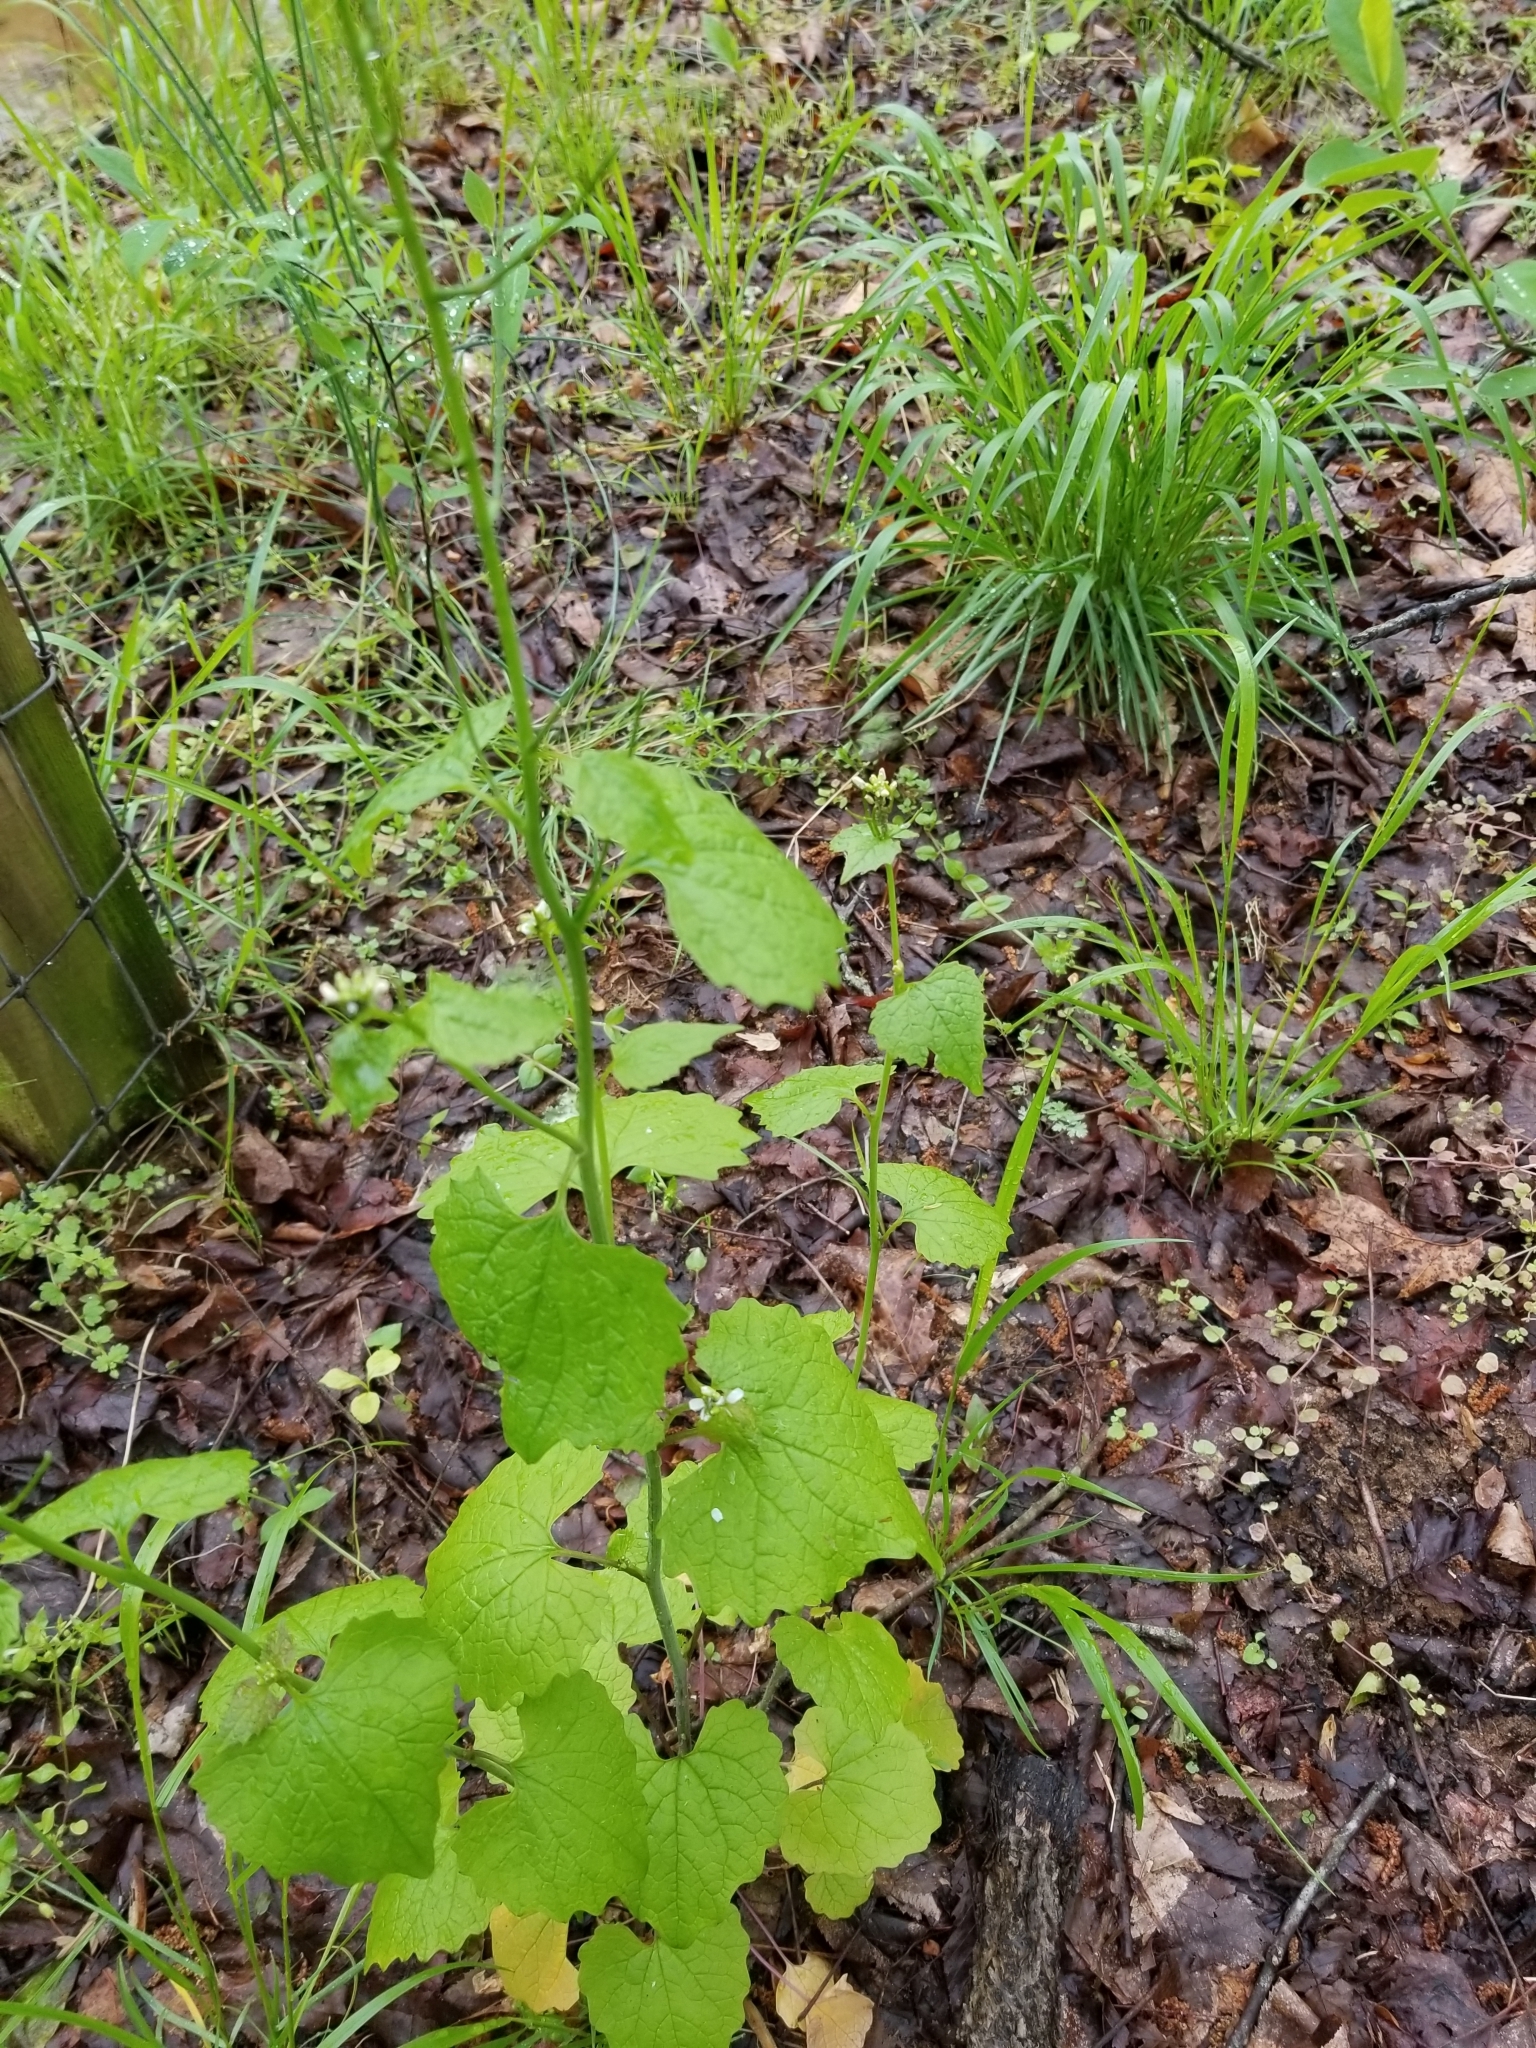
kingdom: Plantae
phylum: Tracheophyta
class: Magnoliopsida
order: Brassicales
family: Brassicaceae
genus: Alliaria
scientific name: Alliaria petiolata
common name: Garlic mustard
